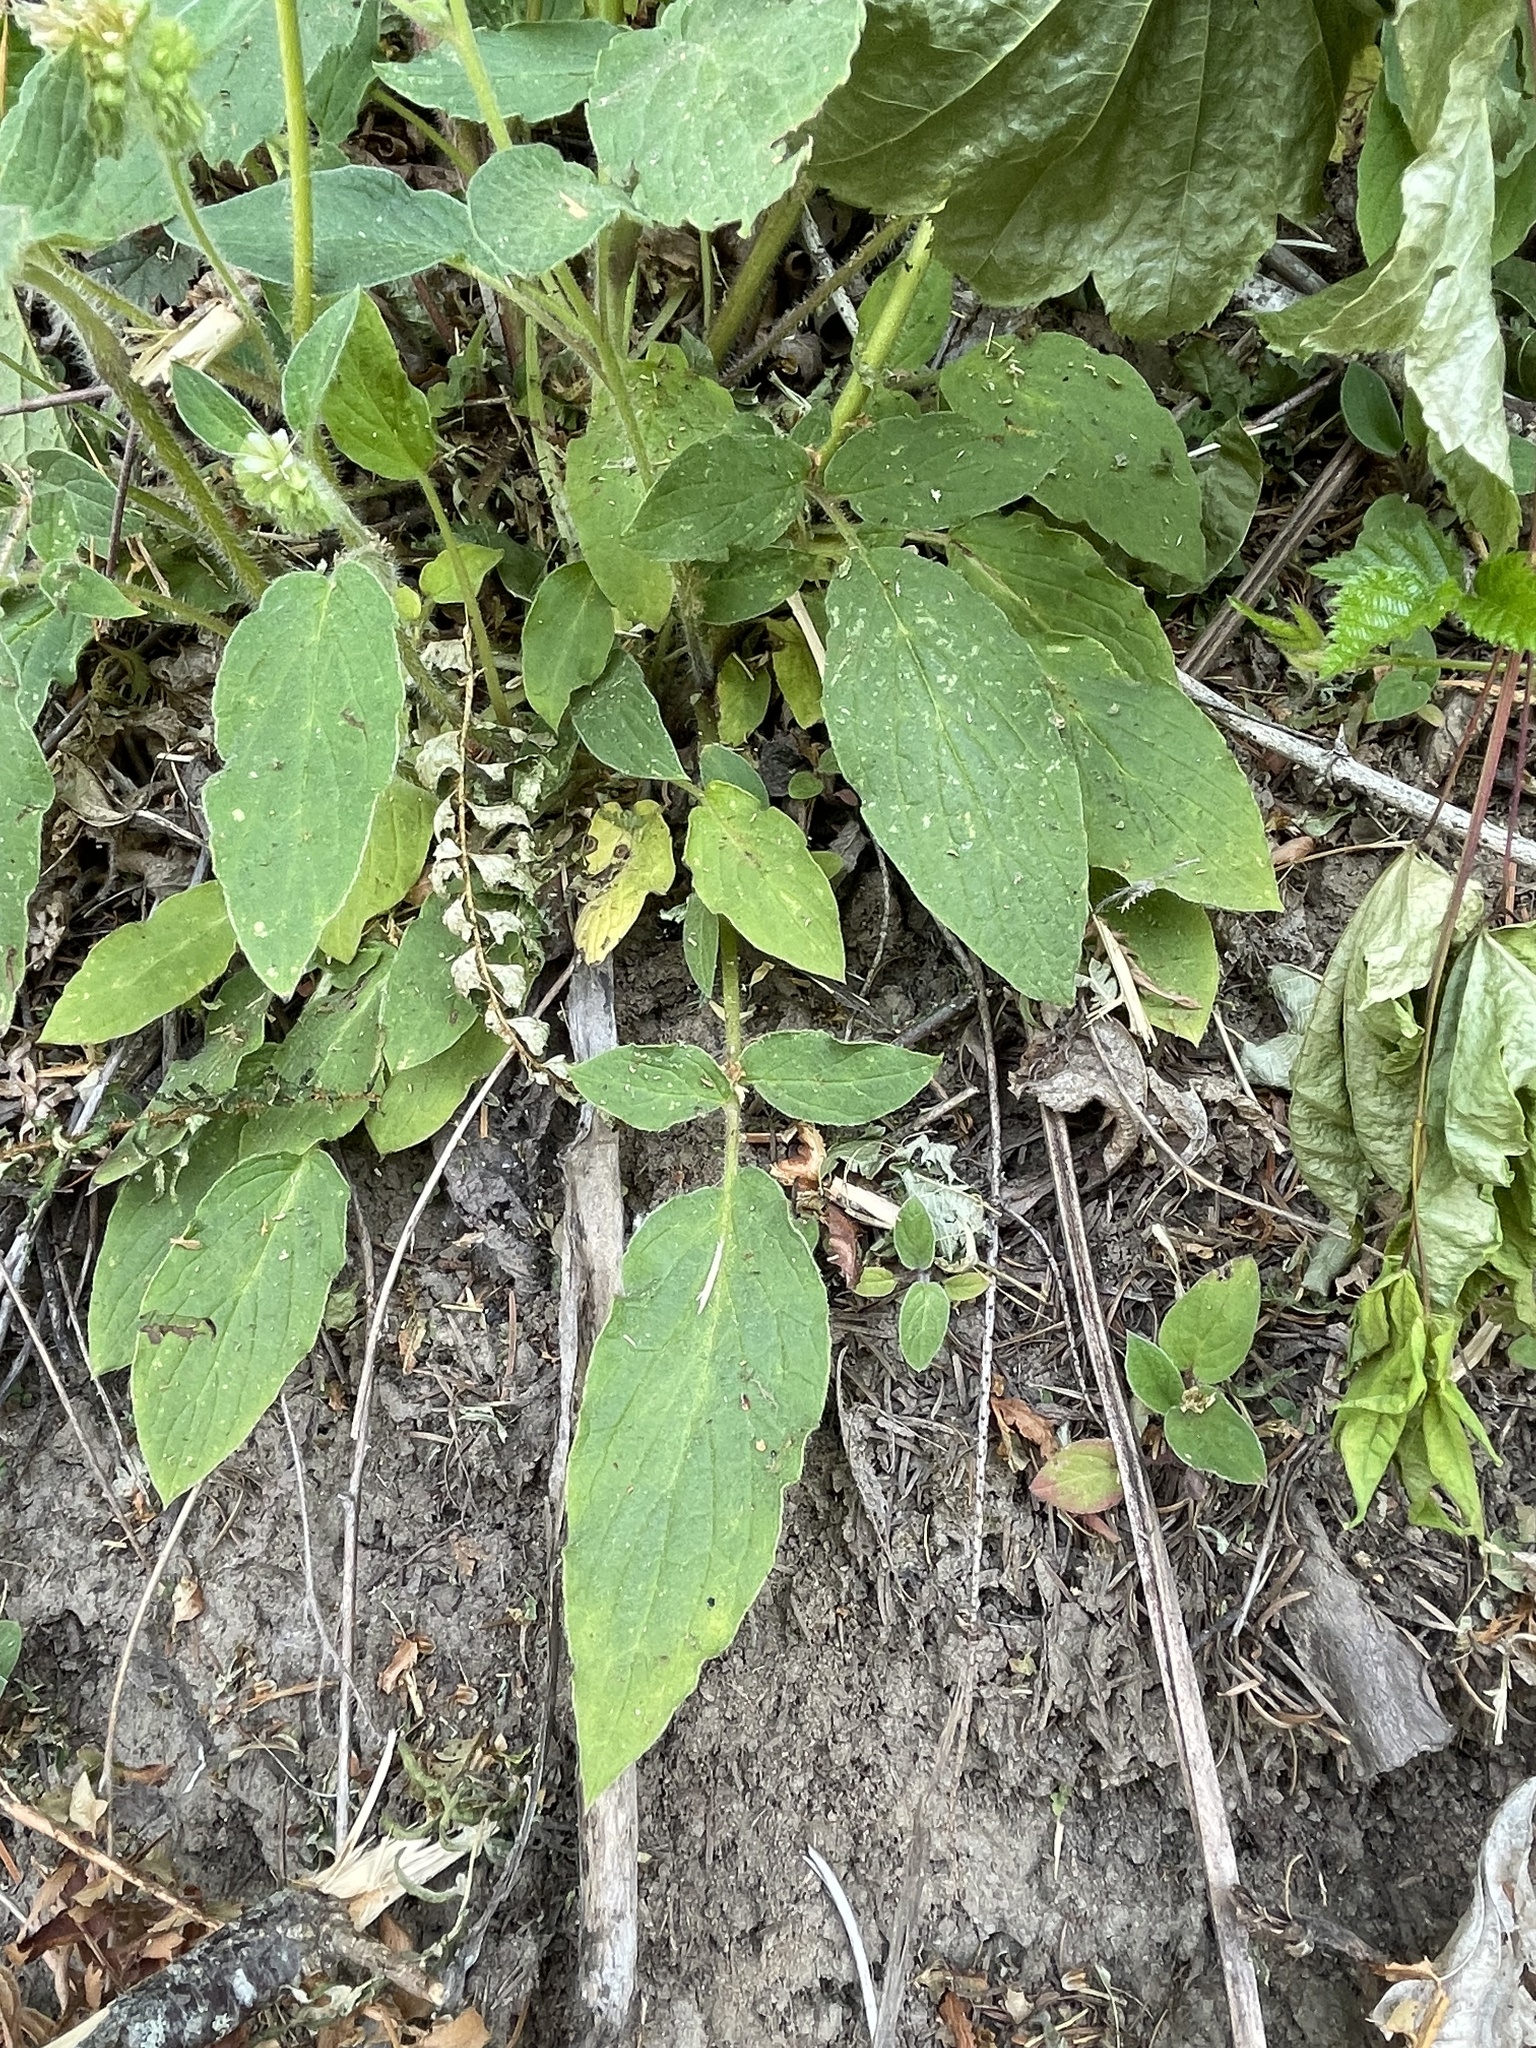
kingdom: Plantae
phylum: Tracheophyta
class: Magnoliopsida
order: Boraginales
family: Hydrophyllaceae
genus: Phacelia
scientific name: Phacelia nemoralis
